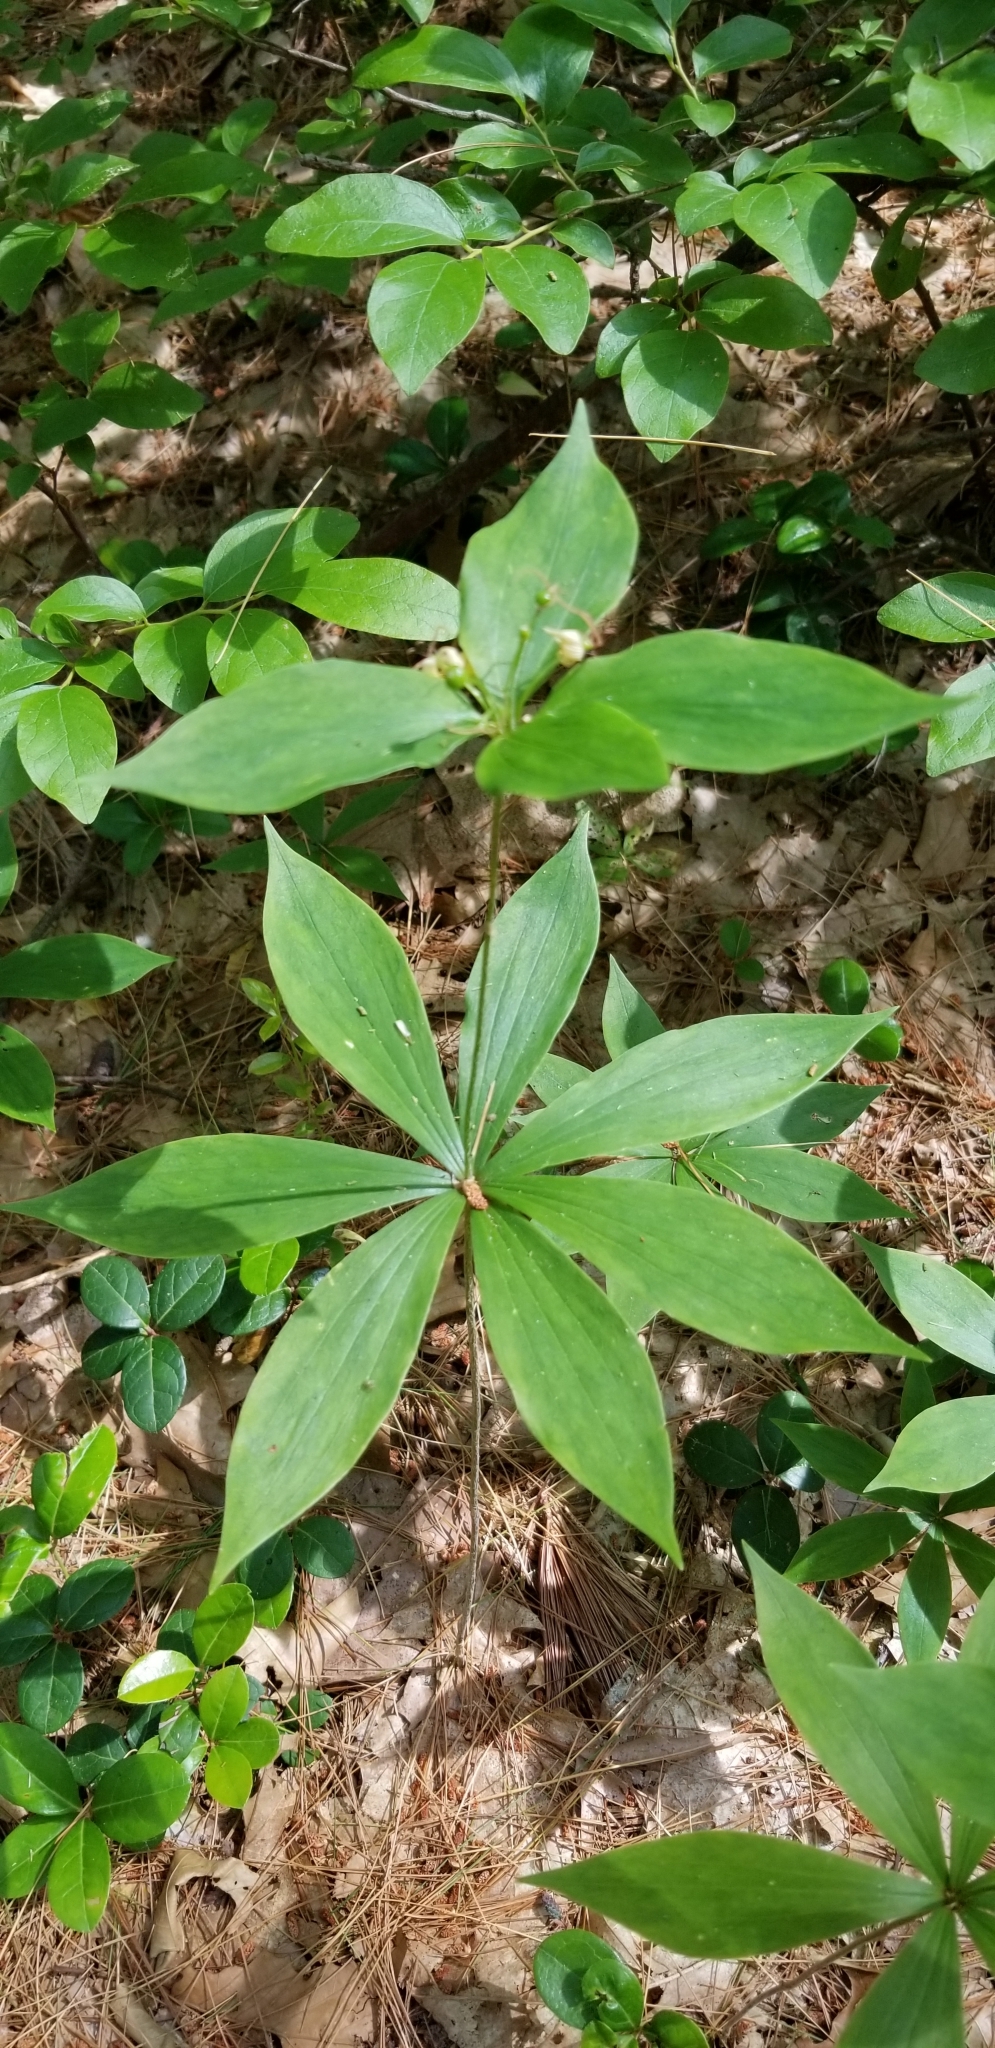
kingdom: Plantae
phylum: Tracheophyta
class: Liliopsida
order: Liliales
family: Liliaceae
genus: Medeola
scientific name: Medeola virginiana
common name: Indian cucumber-root
